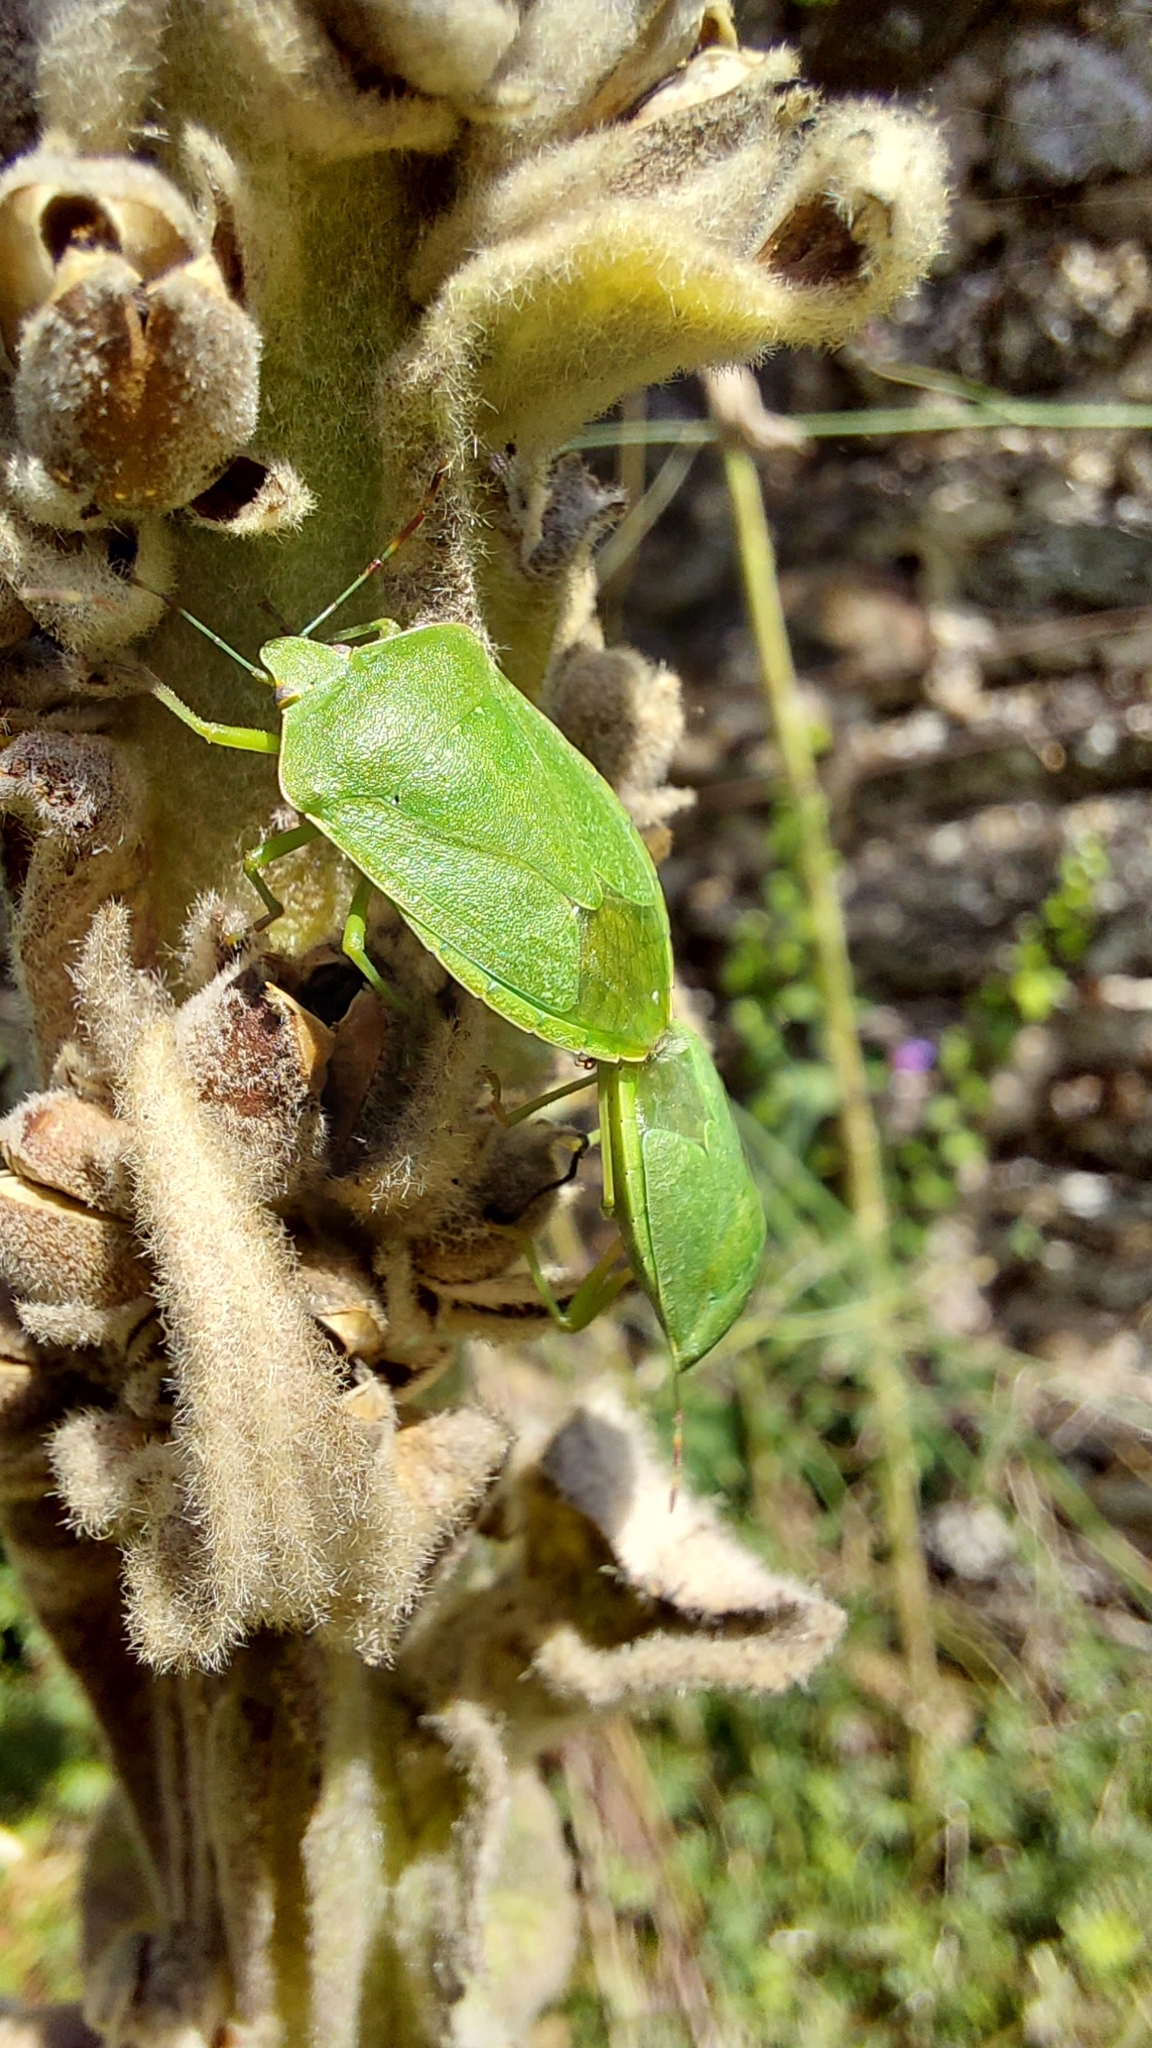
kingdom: Animalia
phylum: Arthropoda
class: Insecta
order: Hemiptera
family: Pentatomidae
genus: Nezara
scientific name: Nezara viridula
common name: Southern green stink bug
